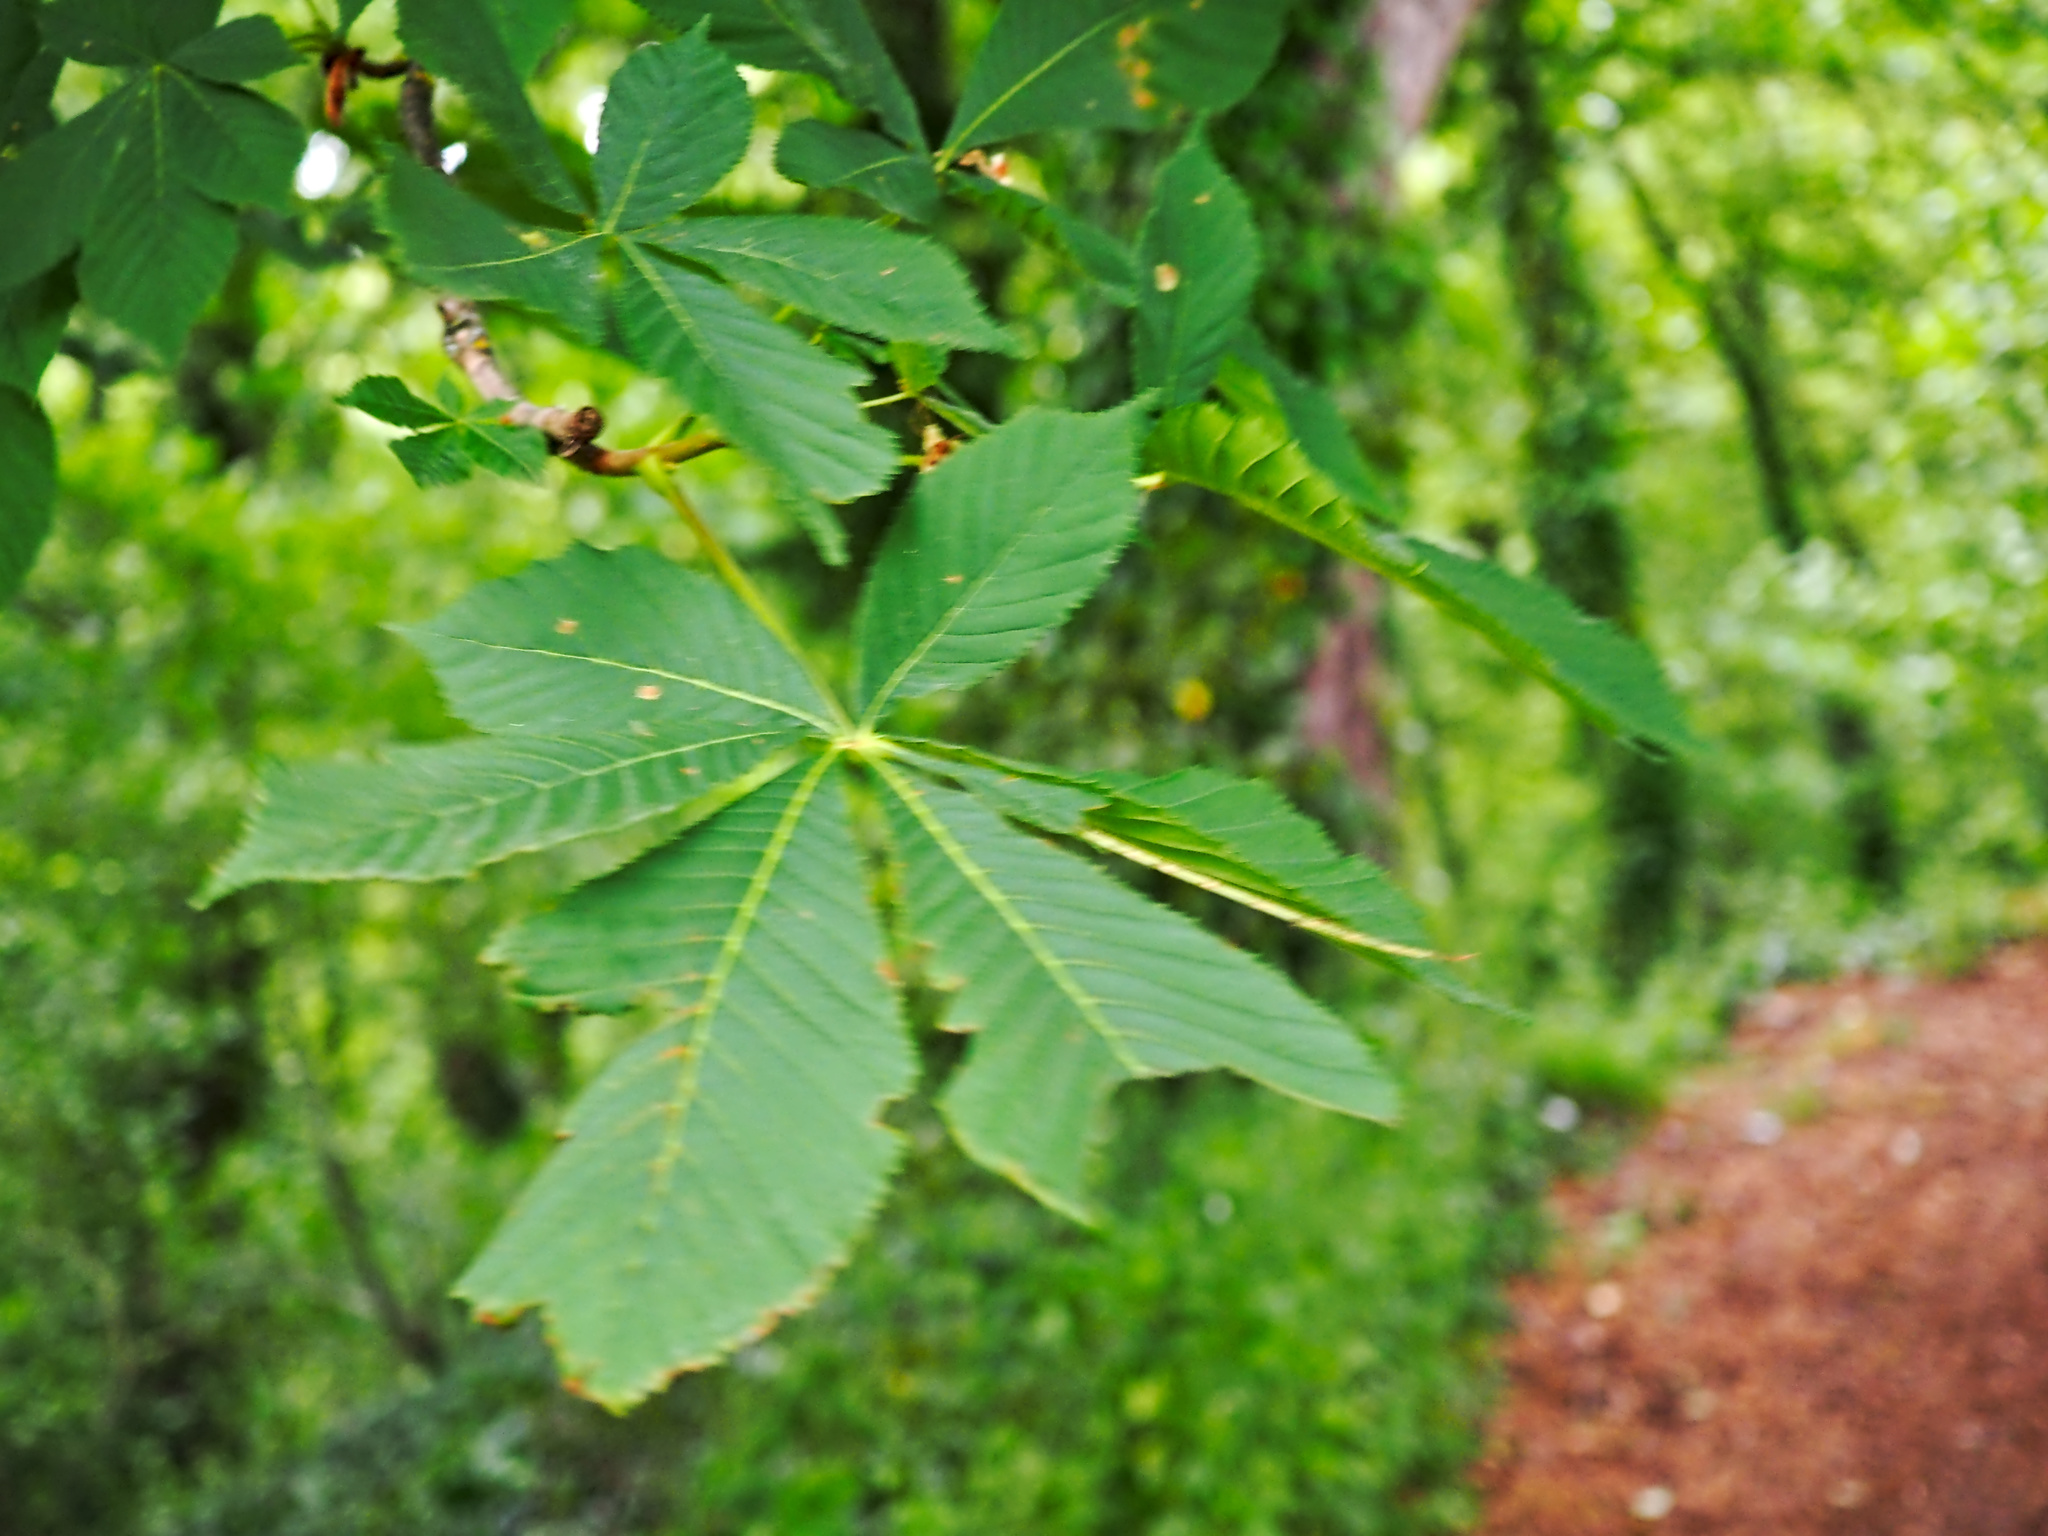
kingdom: Plantae
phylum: Tracheophyta
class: Magnoliopsida
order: Sapindales
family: Sapindaceae
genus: Aesculus
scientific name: Aesculus hippocastanum
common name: Horse-chestnut
